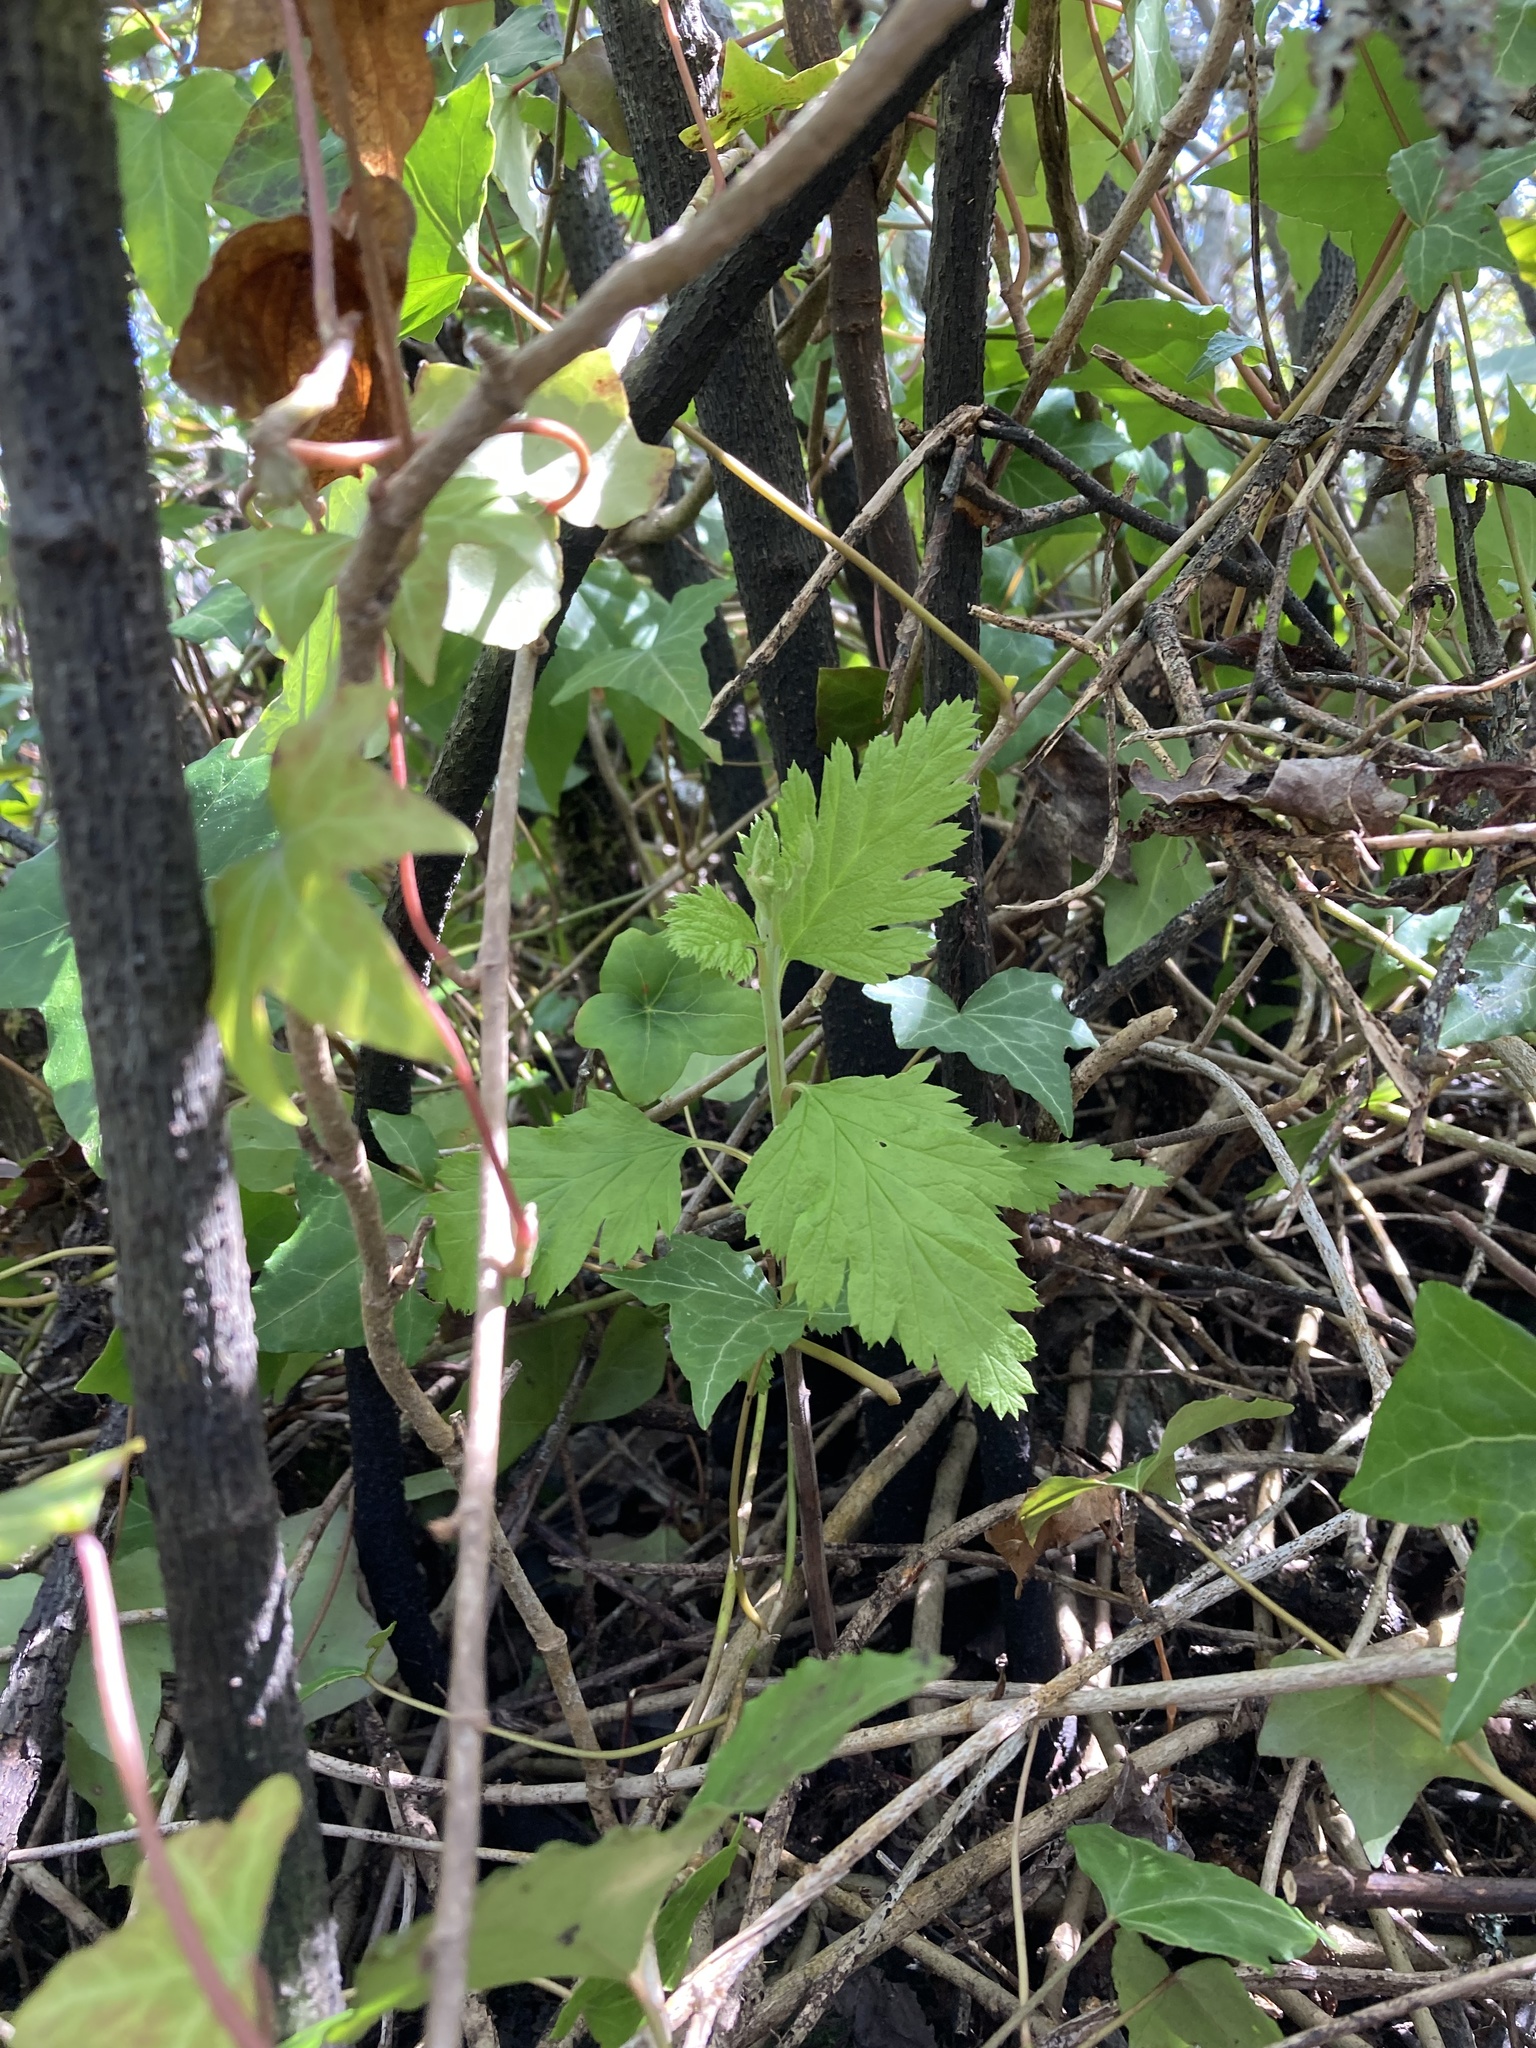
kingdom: Plantae
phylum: Tracheophyta
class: Magnoliopsida
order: Rosales
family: Rosaceae
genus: Holodiscus
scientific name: Holodiscus discolor
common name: Oceanspray
